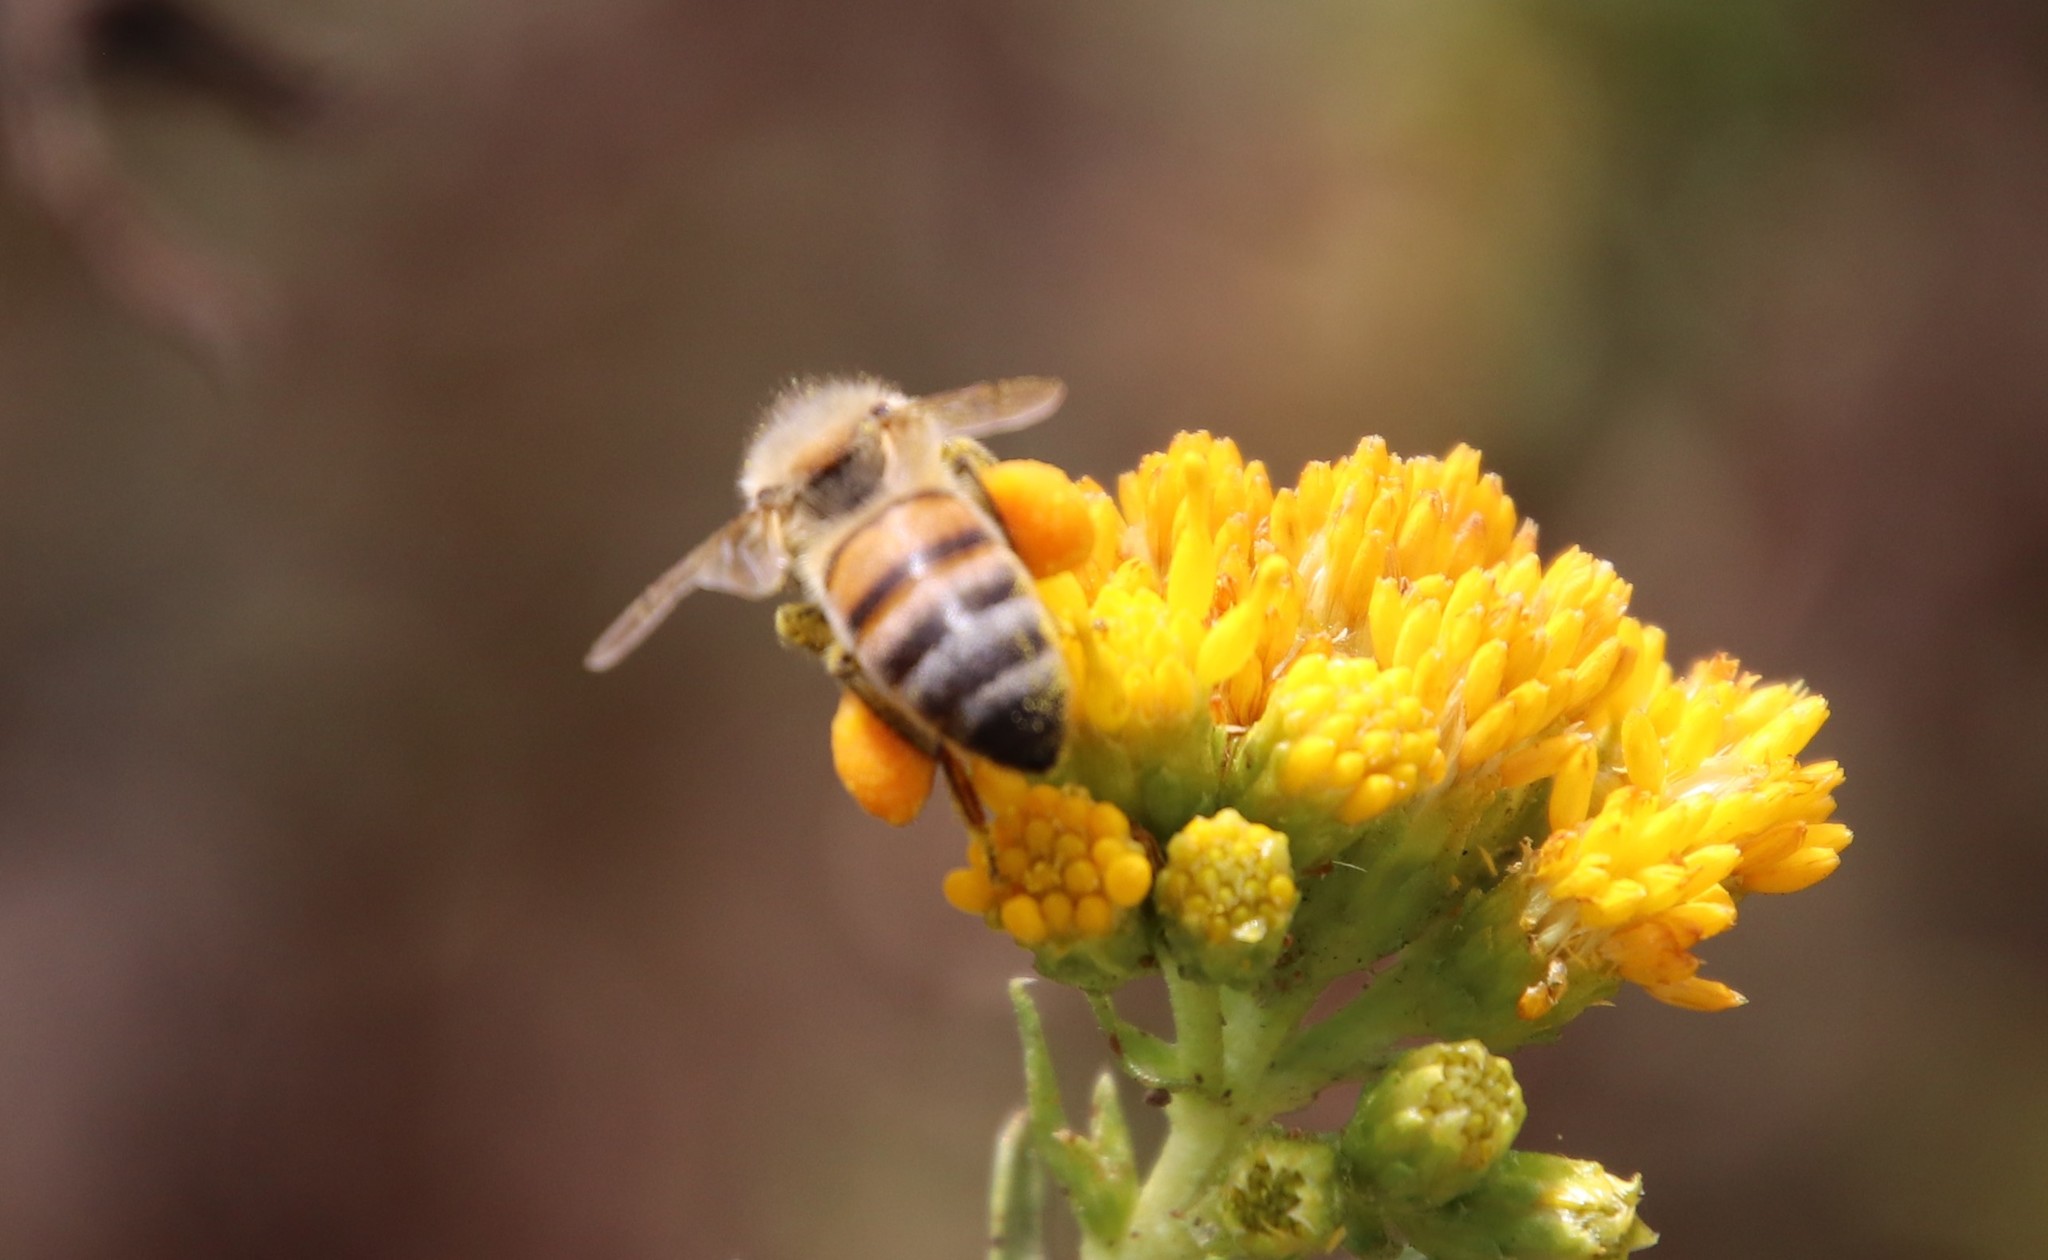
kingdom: Animalia
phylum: Arthropoda
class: Insecta
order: Hymenoptera
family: Apidae
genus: Apis
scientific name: Apis mellifera
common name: Honey bee
